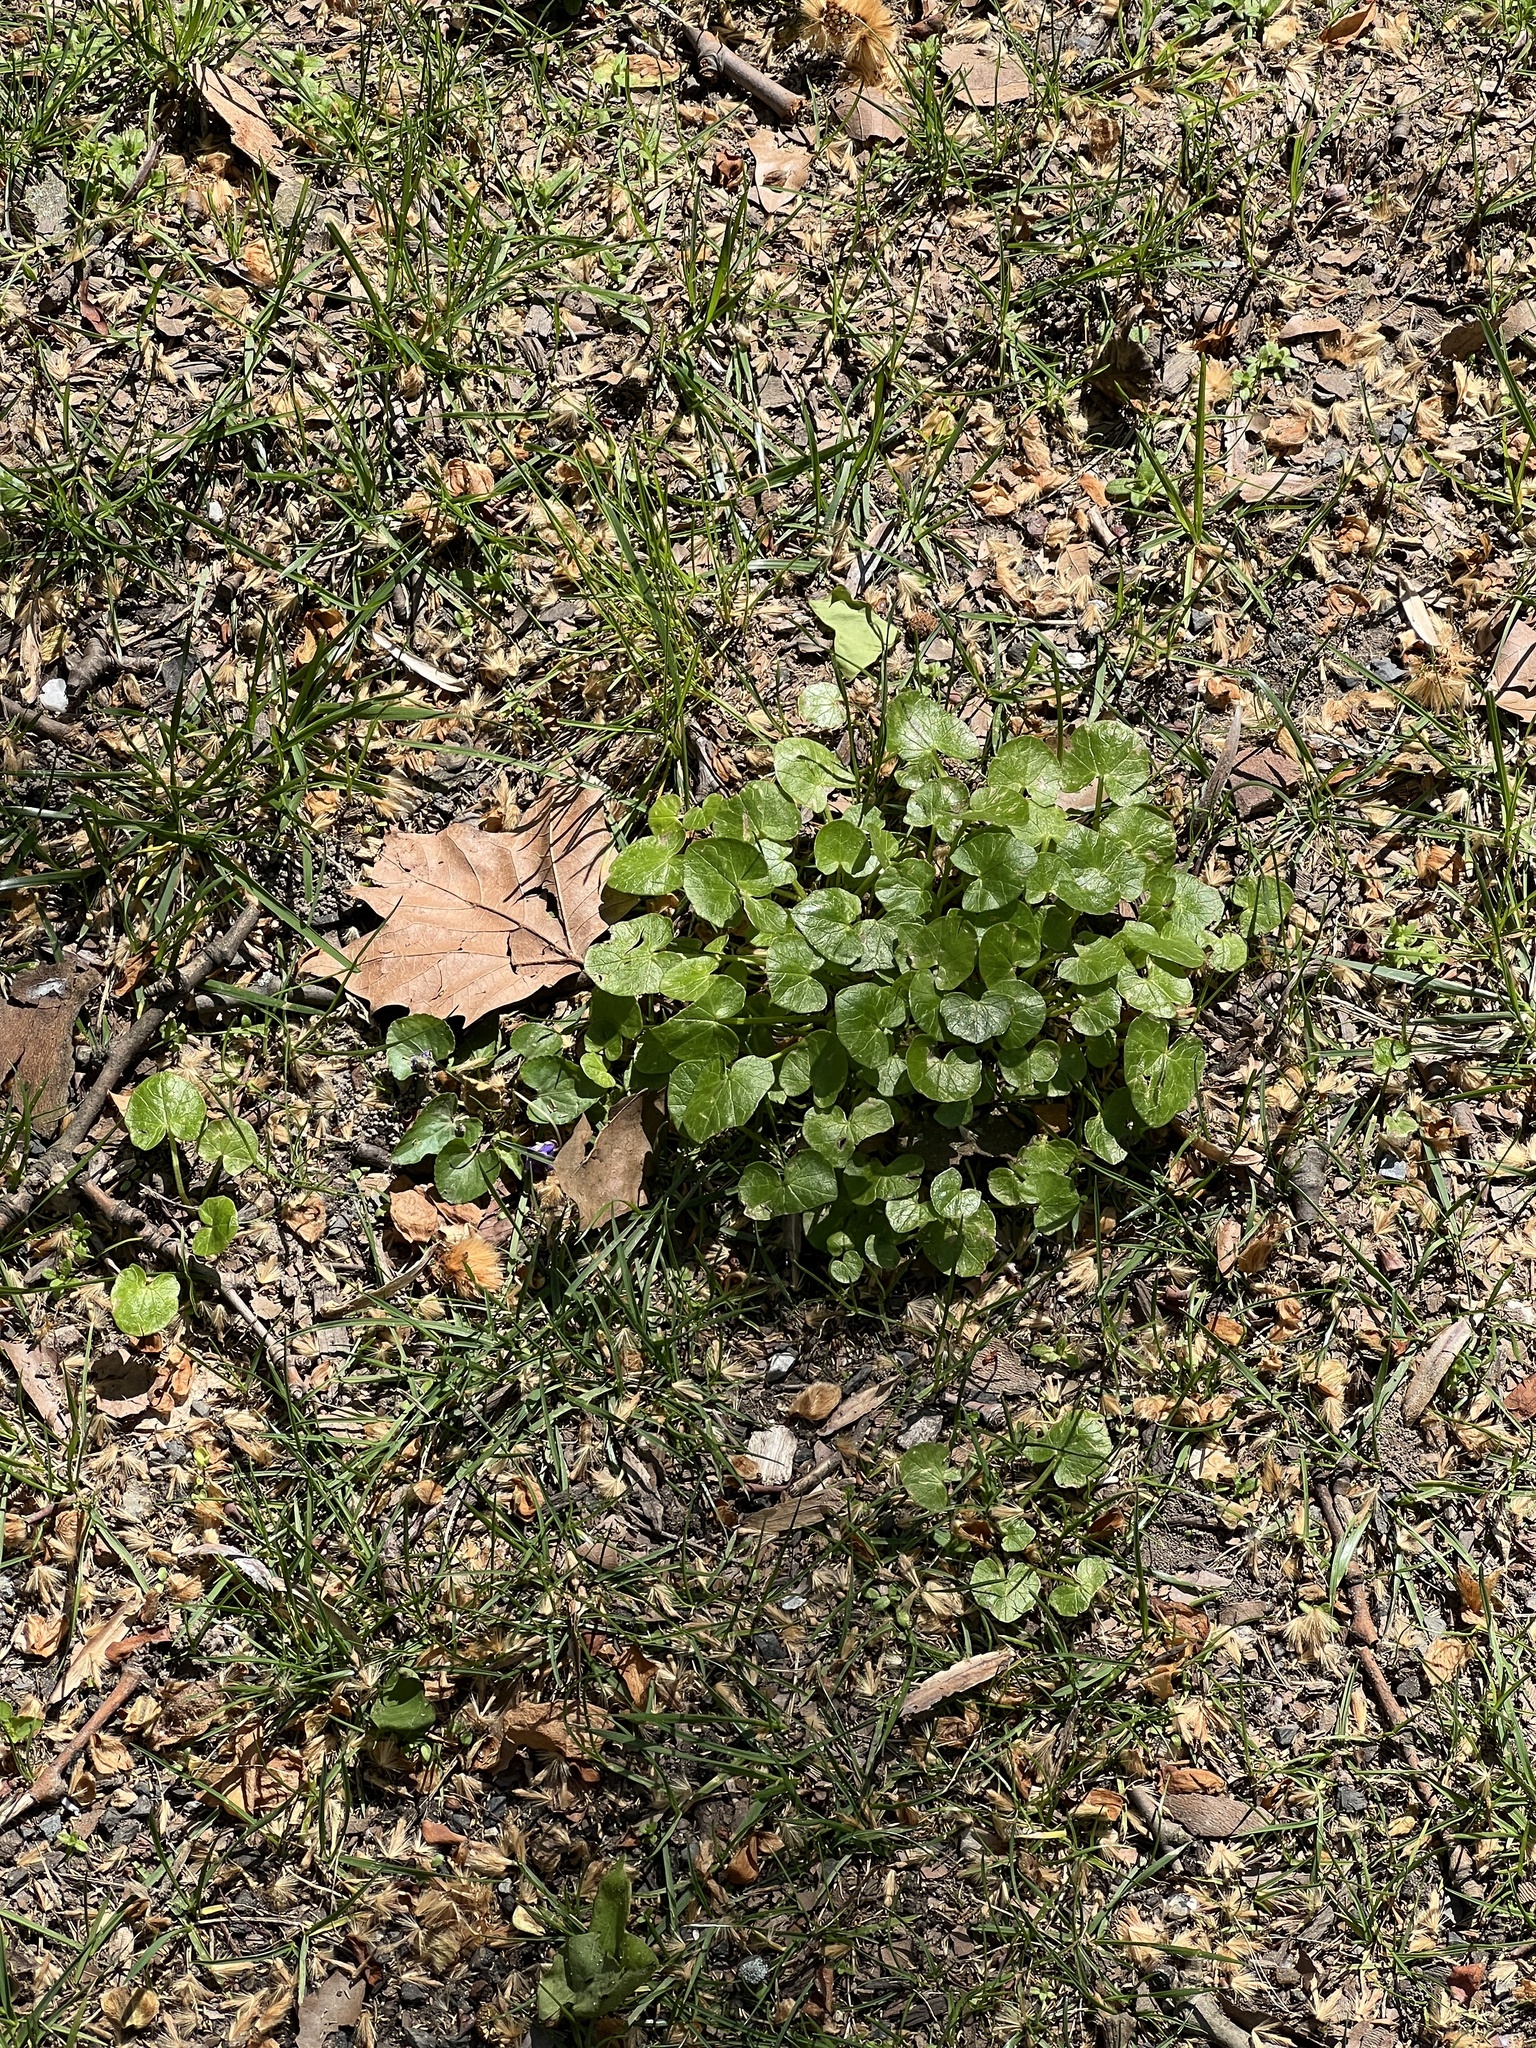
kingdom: Plantae
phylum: Tracheophyta
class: Magnoliopsida
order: Ranunculales
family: Ranunculaceae
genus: Ficaria
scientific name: Ficaria verna
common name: Lesser celandine
